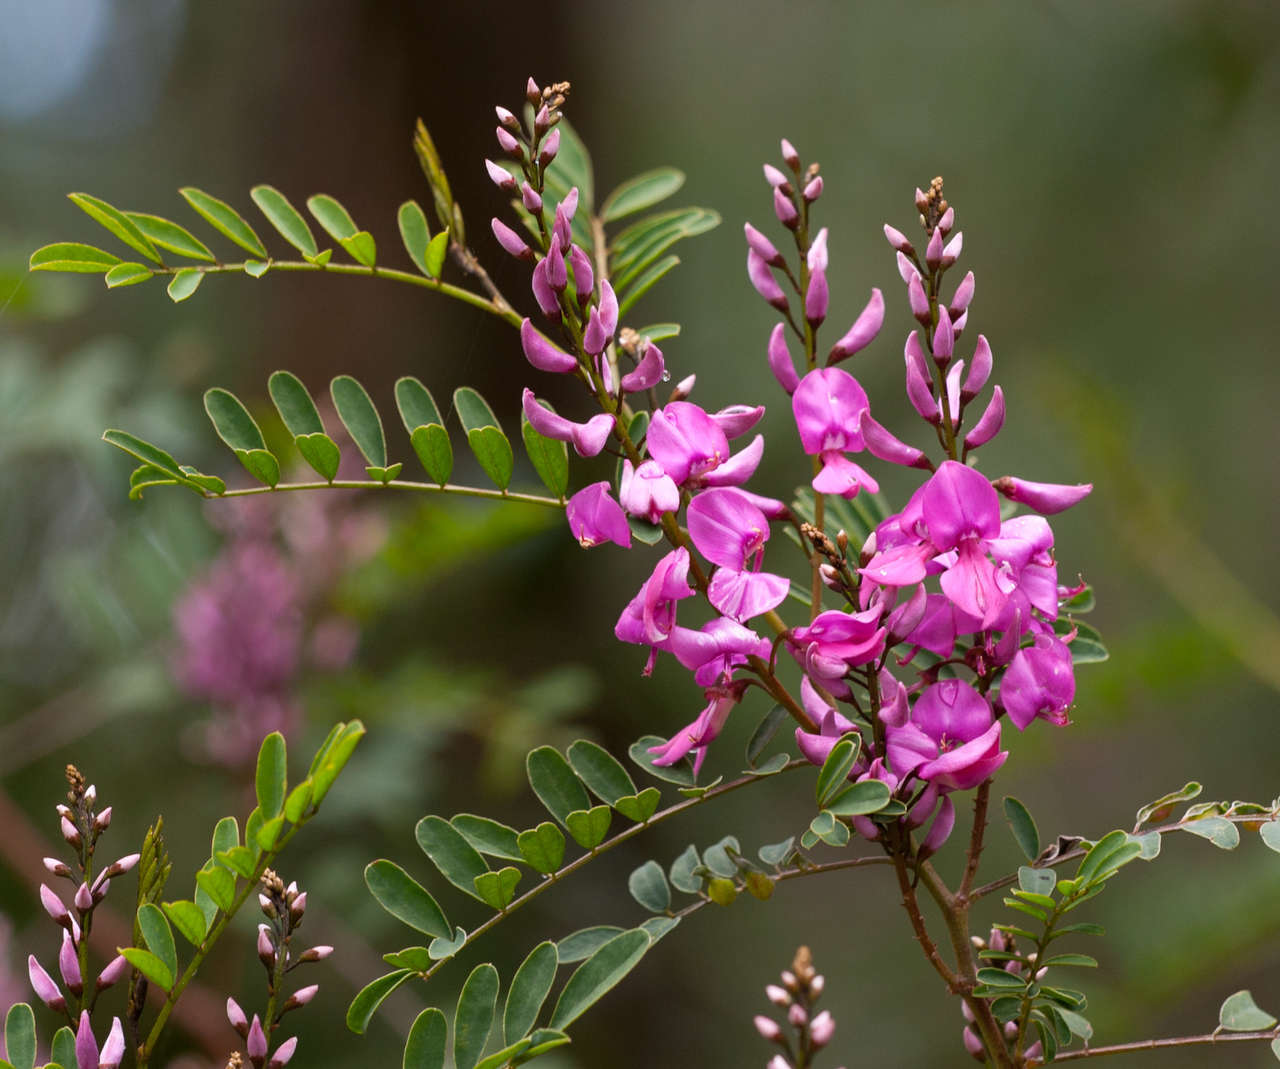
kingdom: Plantae
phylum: Tracheophyta
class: Magnoliopsida
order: Fabales
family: Fabaceae
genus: Indigofera
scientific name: Indigofera australis
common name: Australian indigo
